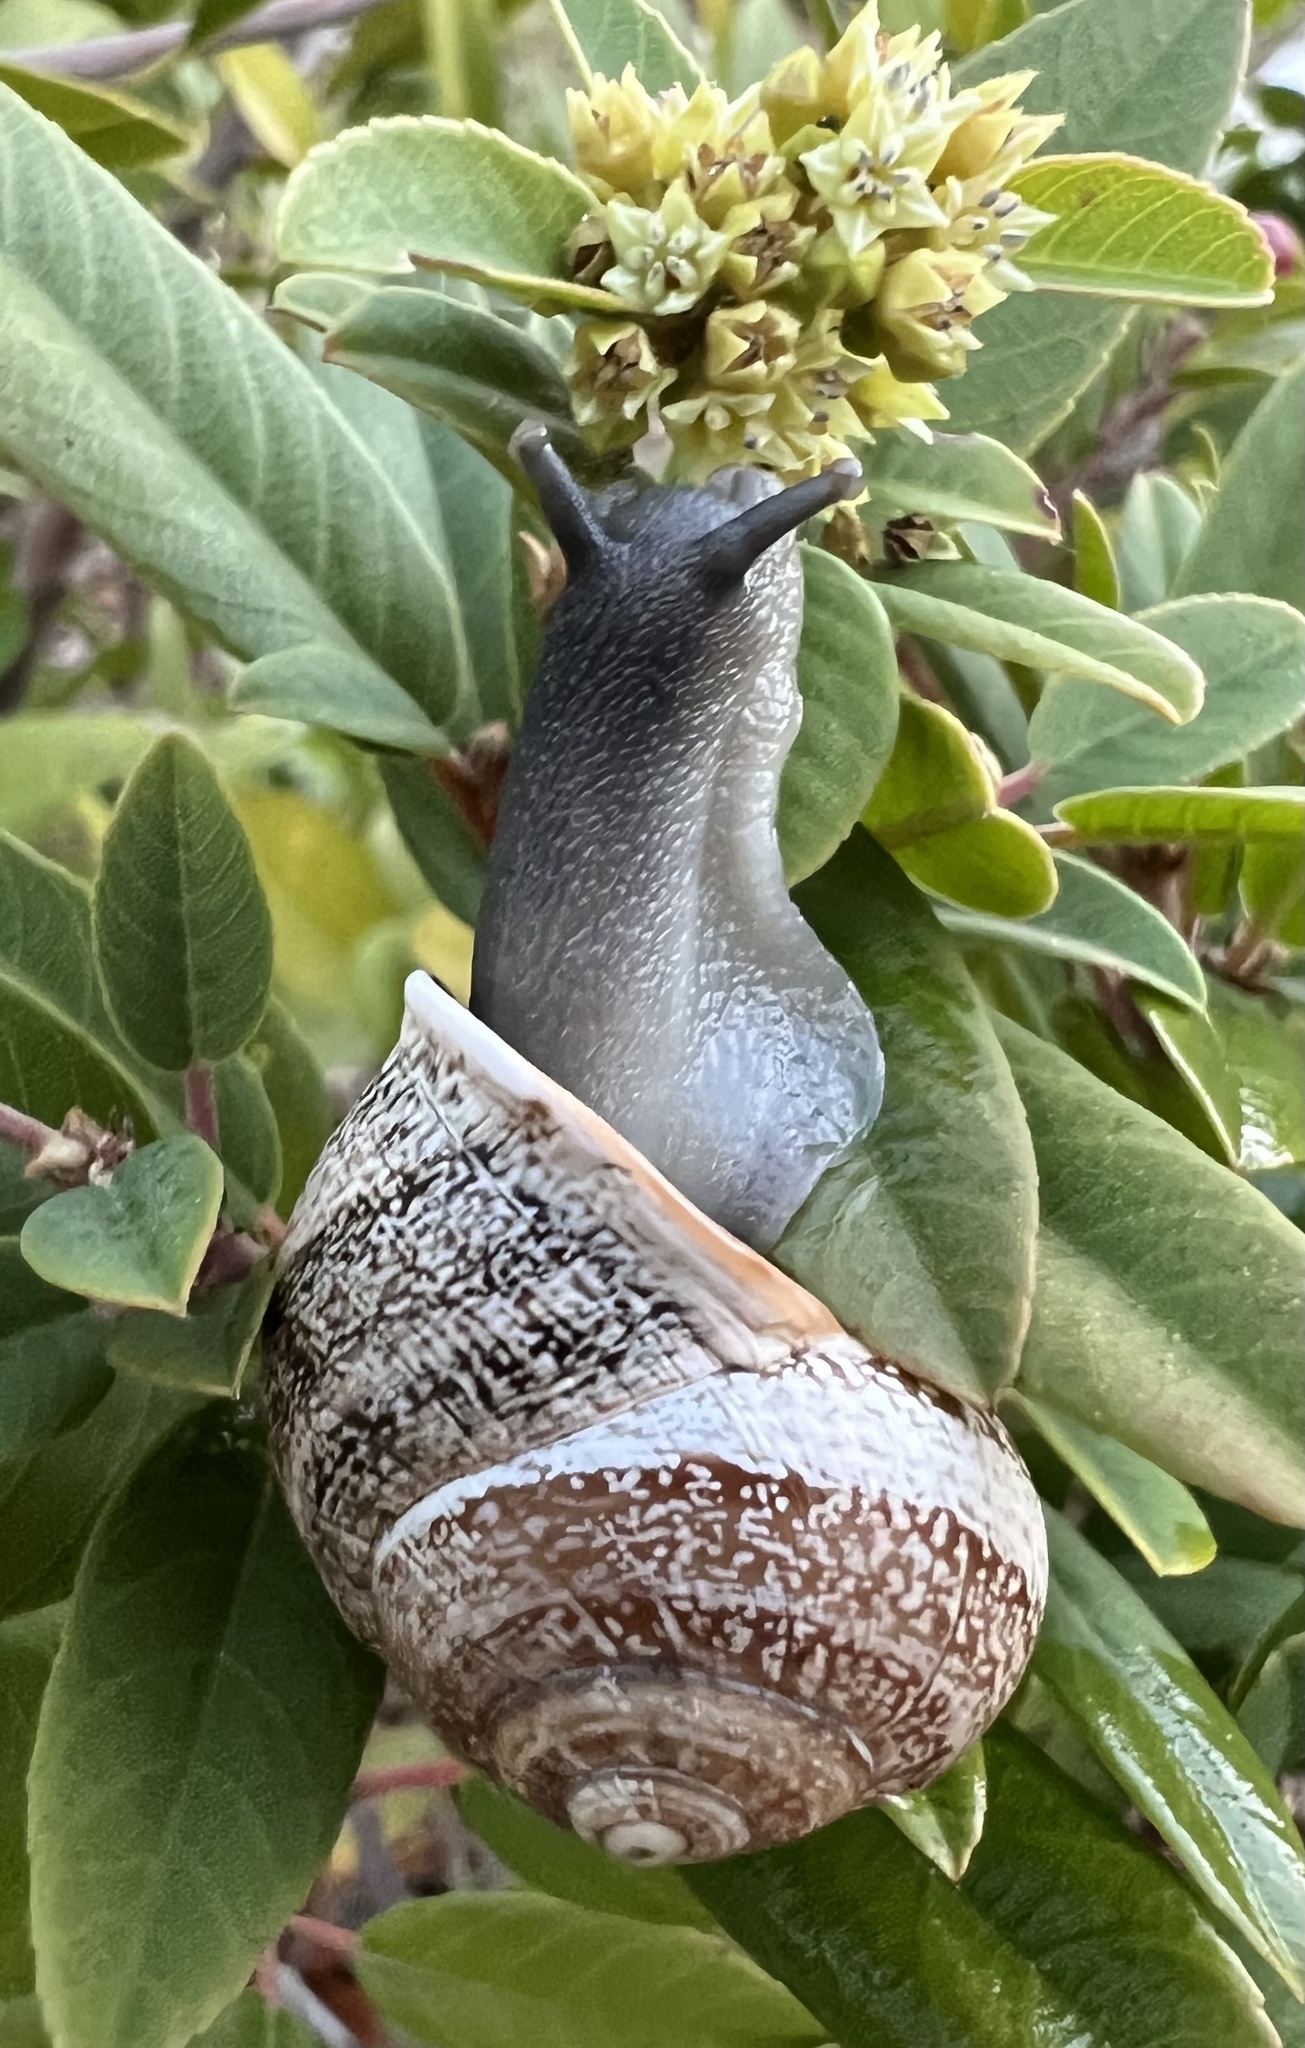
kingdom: Animalia
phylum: Mollusca
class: Gastropoda
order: Stylommatophora
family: Helicidae
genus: Otala
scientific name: Otala lactea
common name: Milk snail
